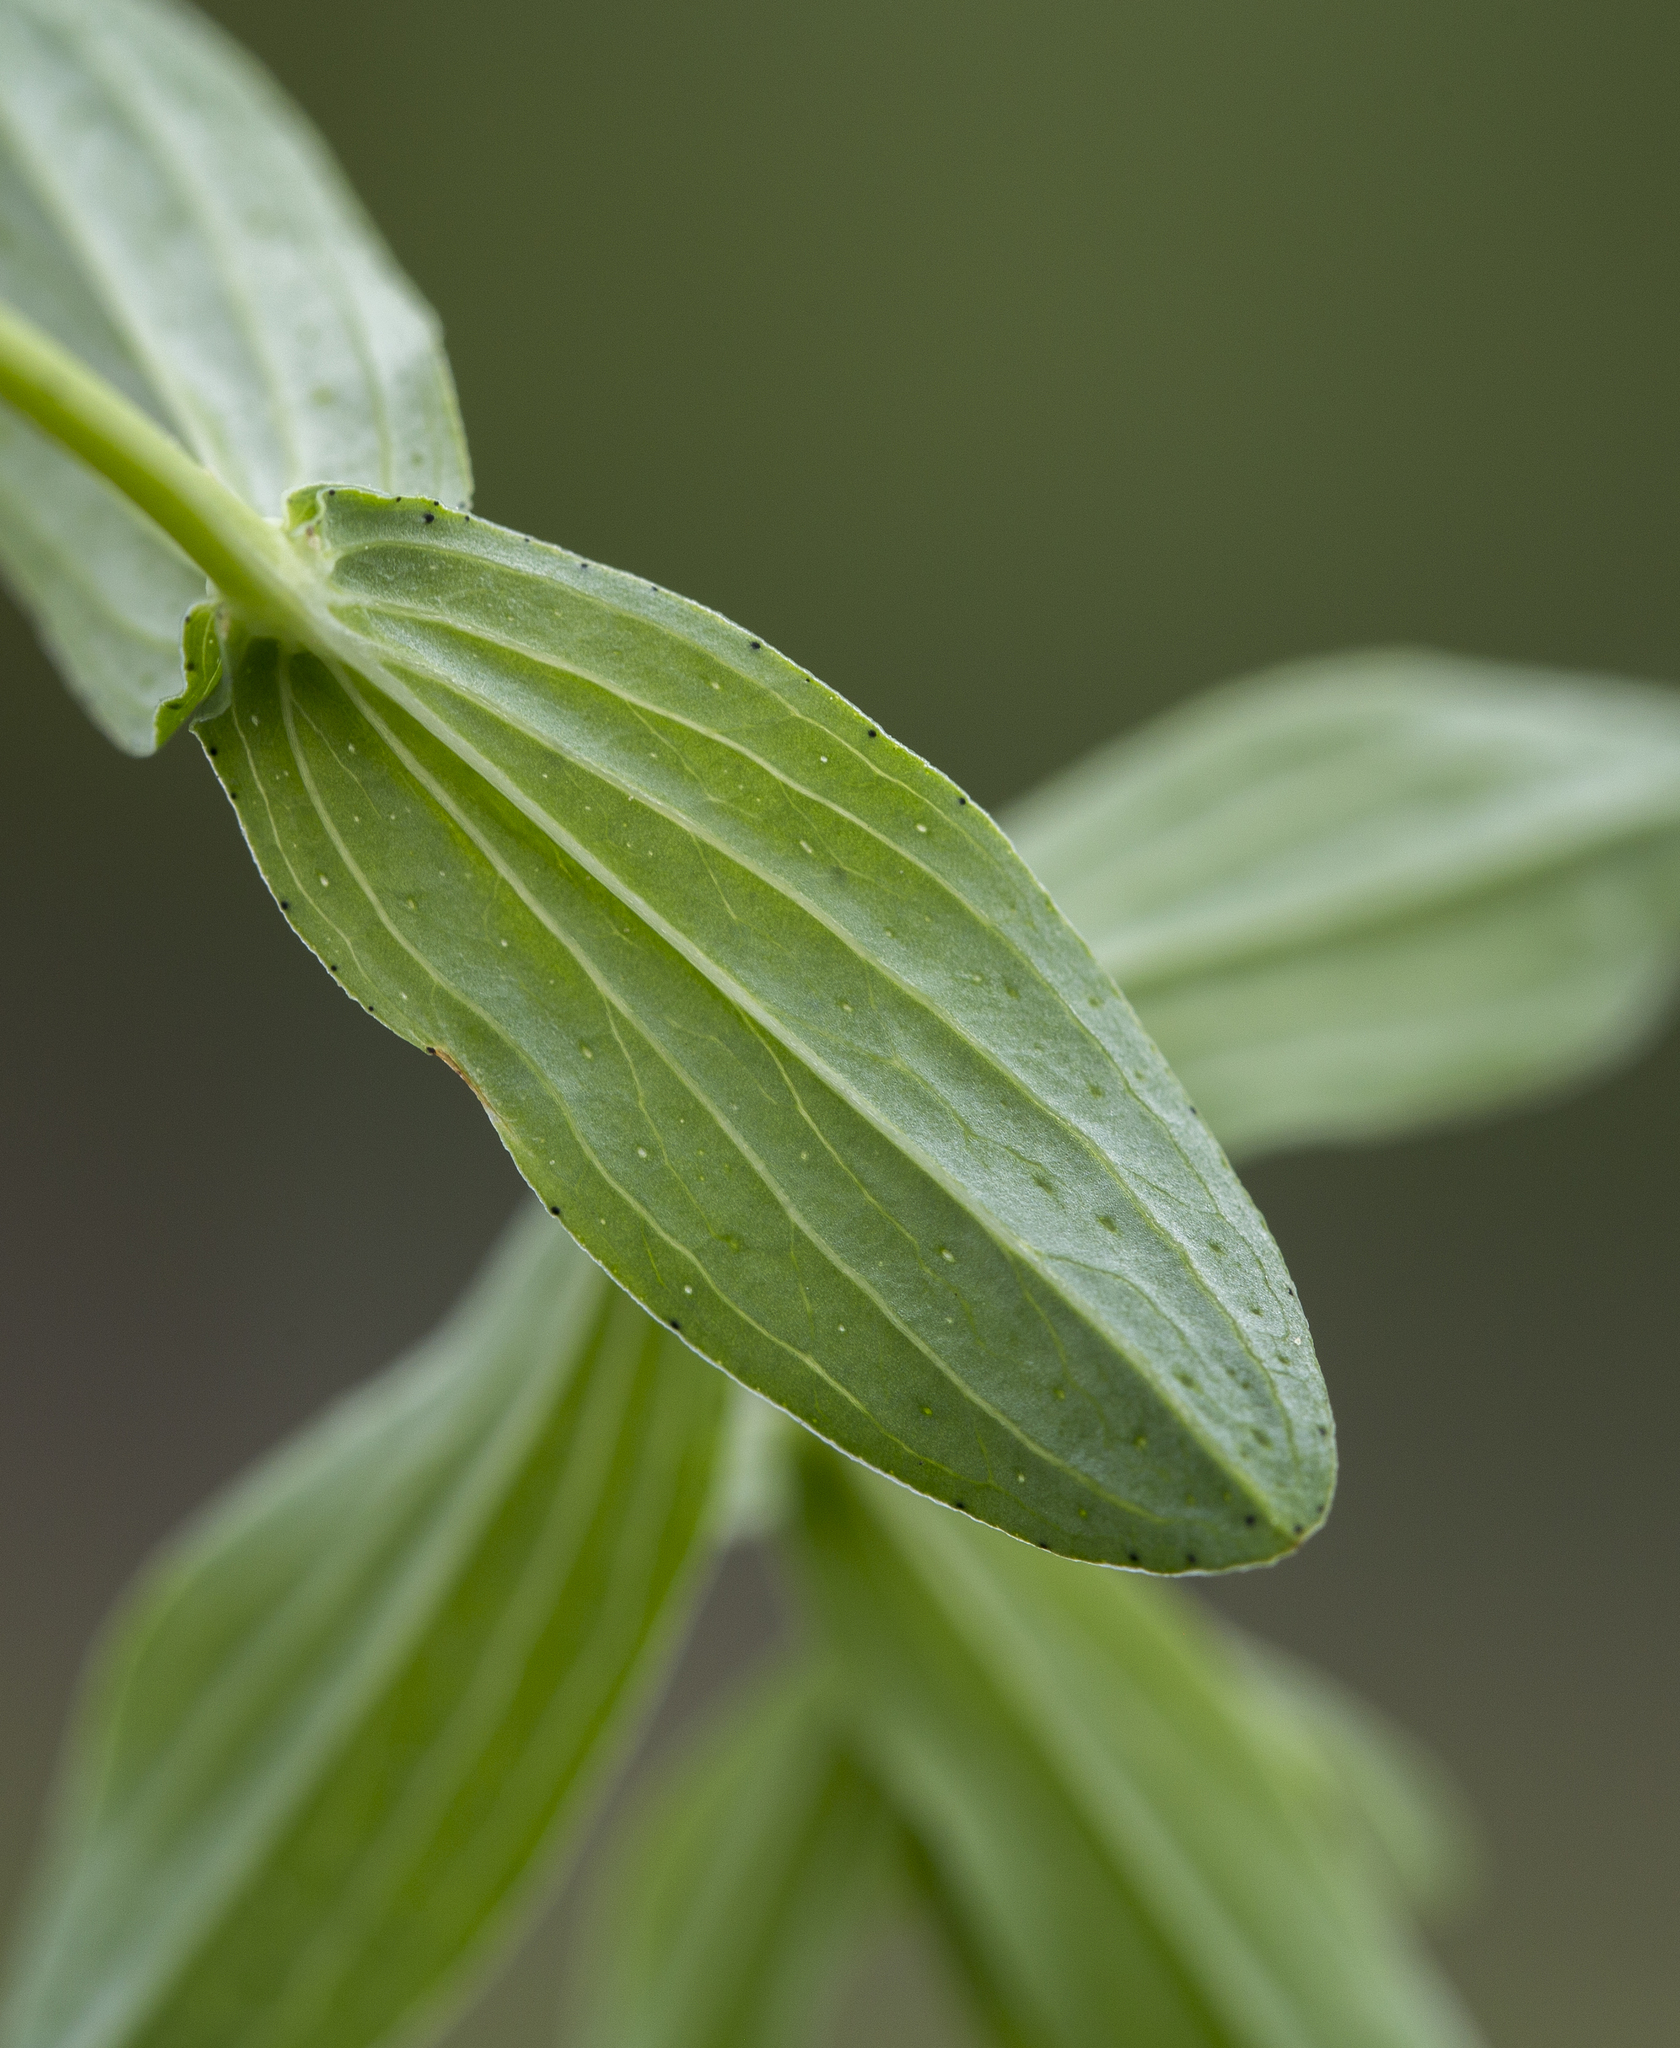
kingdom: Plantae
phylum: Tracheophyta
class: Magnoliopsida
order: Malpighiales
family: Hypericaceae
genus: Hypericum
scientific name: Hypericum perforatum
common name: Common st. johnswort
